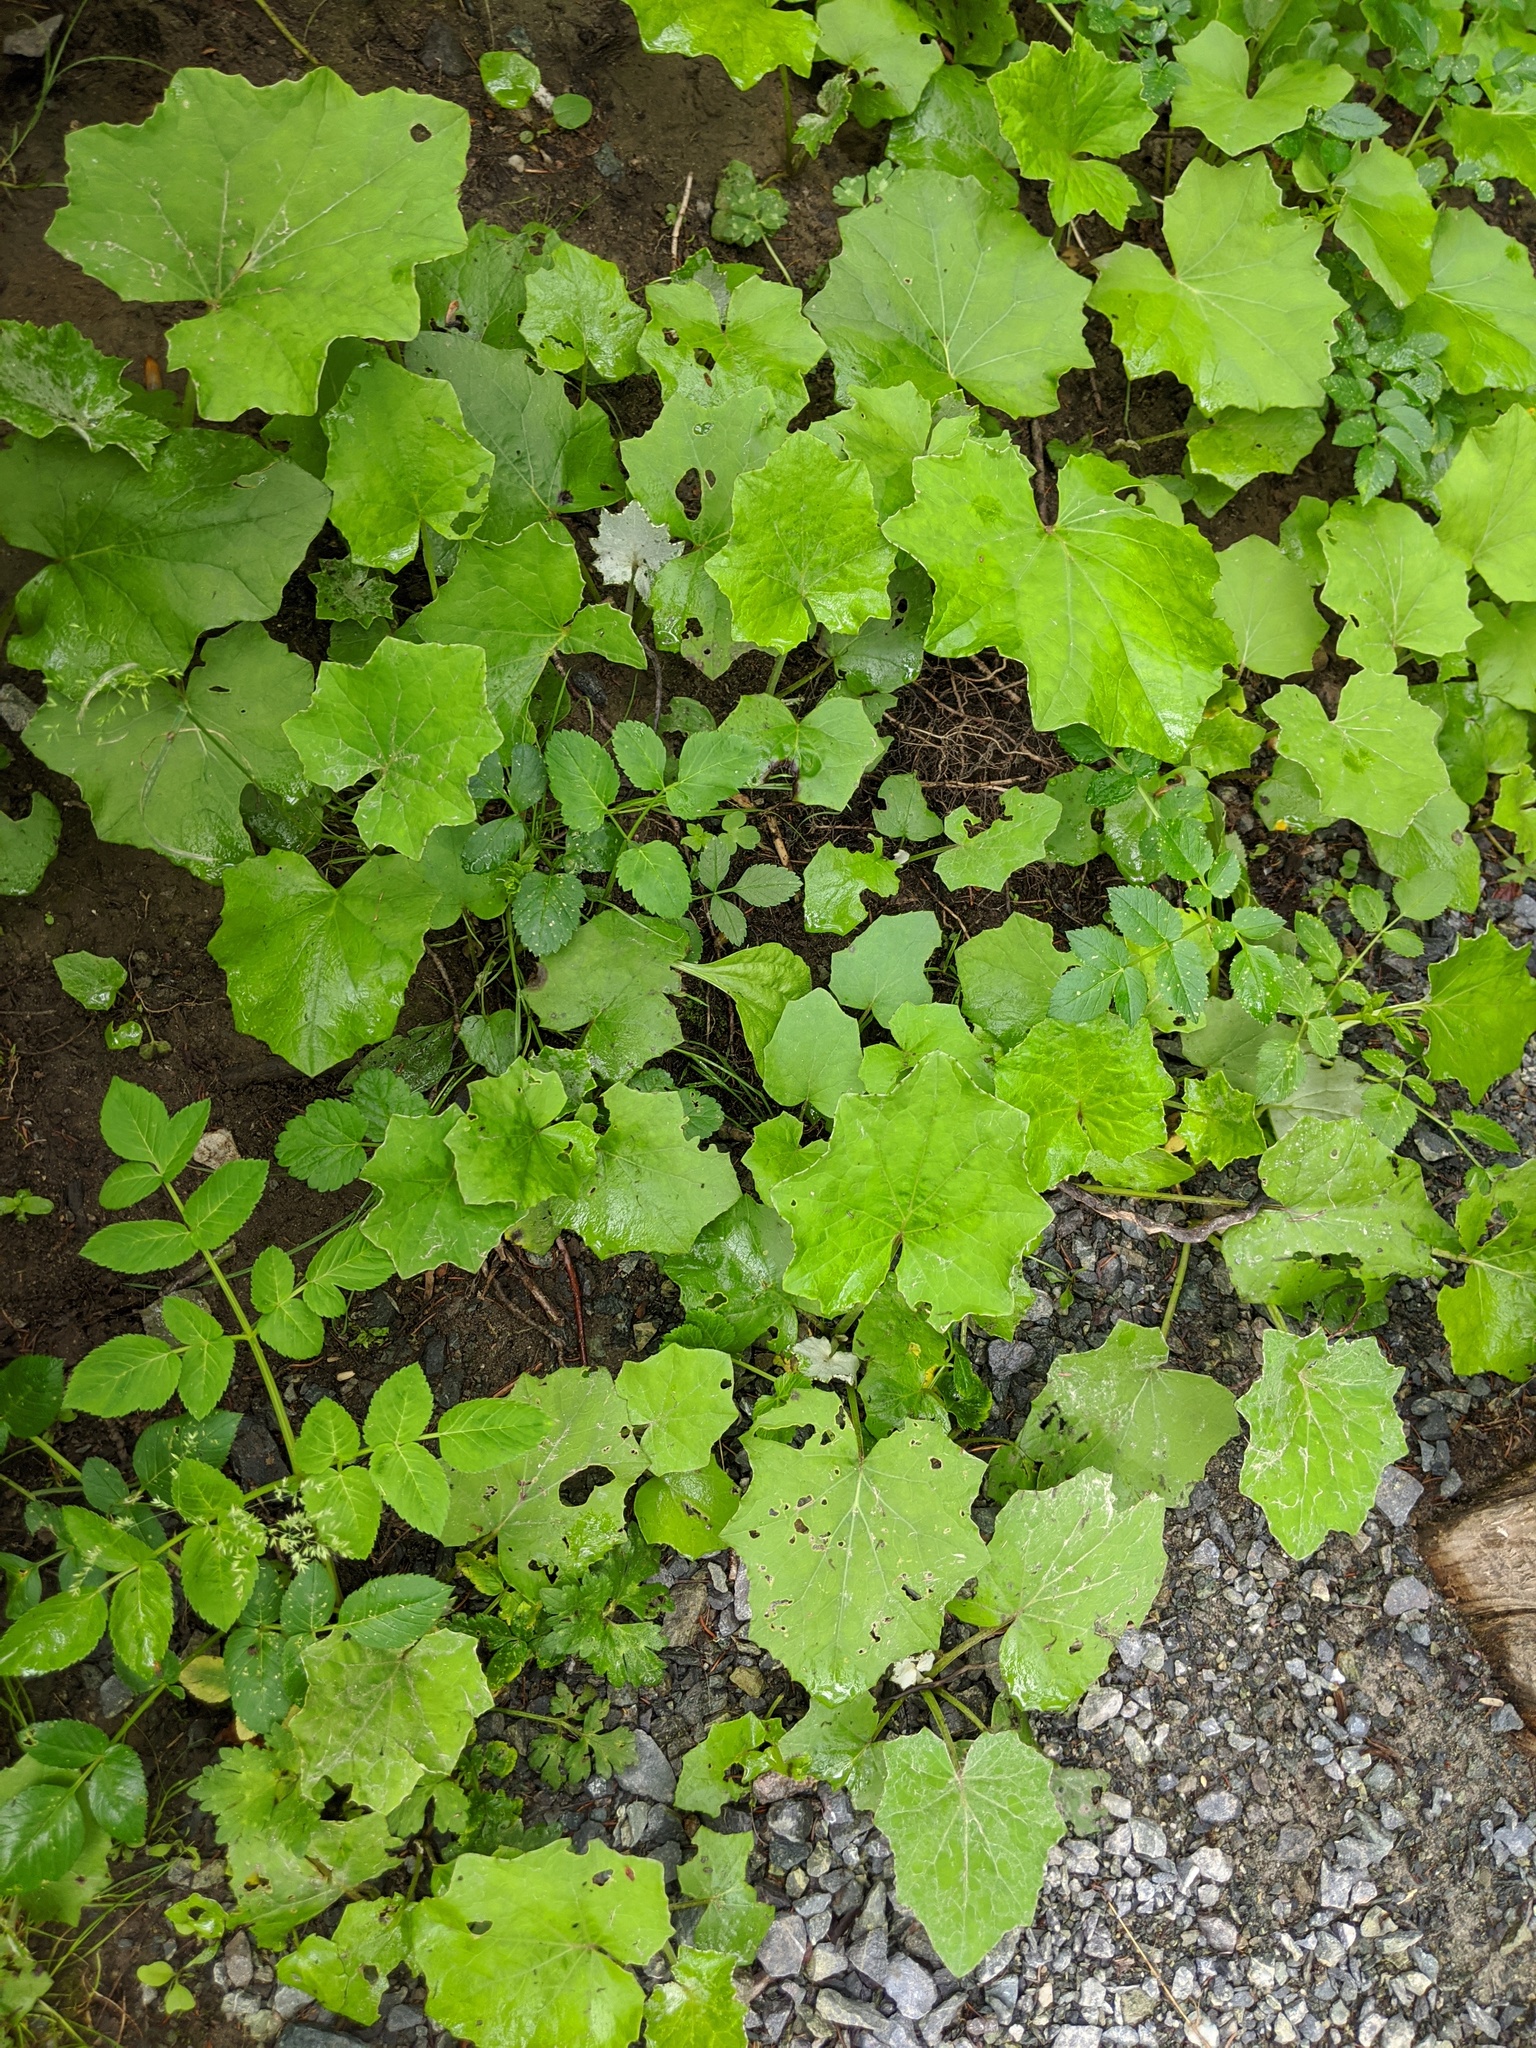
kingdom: Plantae
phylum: Tracheophyta
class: Magnoliopsida
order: Asterales
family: Asteraceae
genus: Tussilago
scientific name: Tussilago farfara
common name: Coltsfoot
